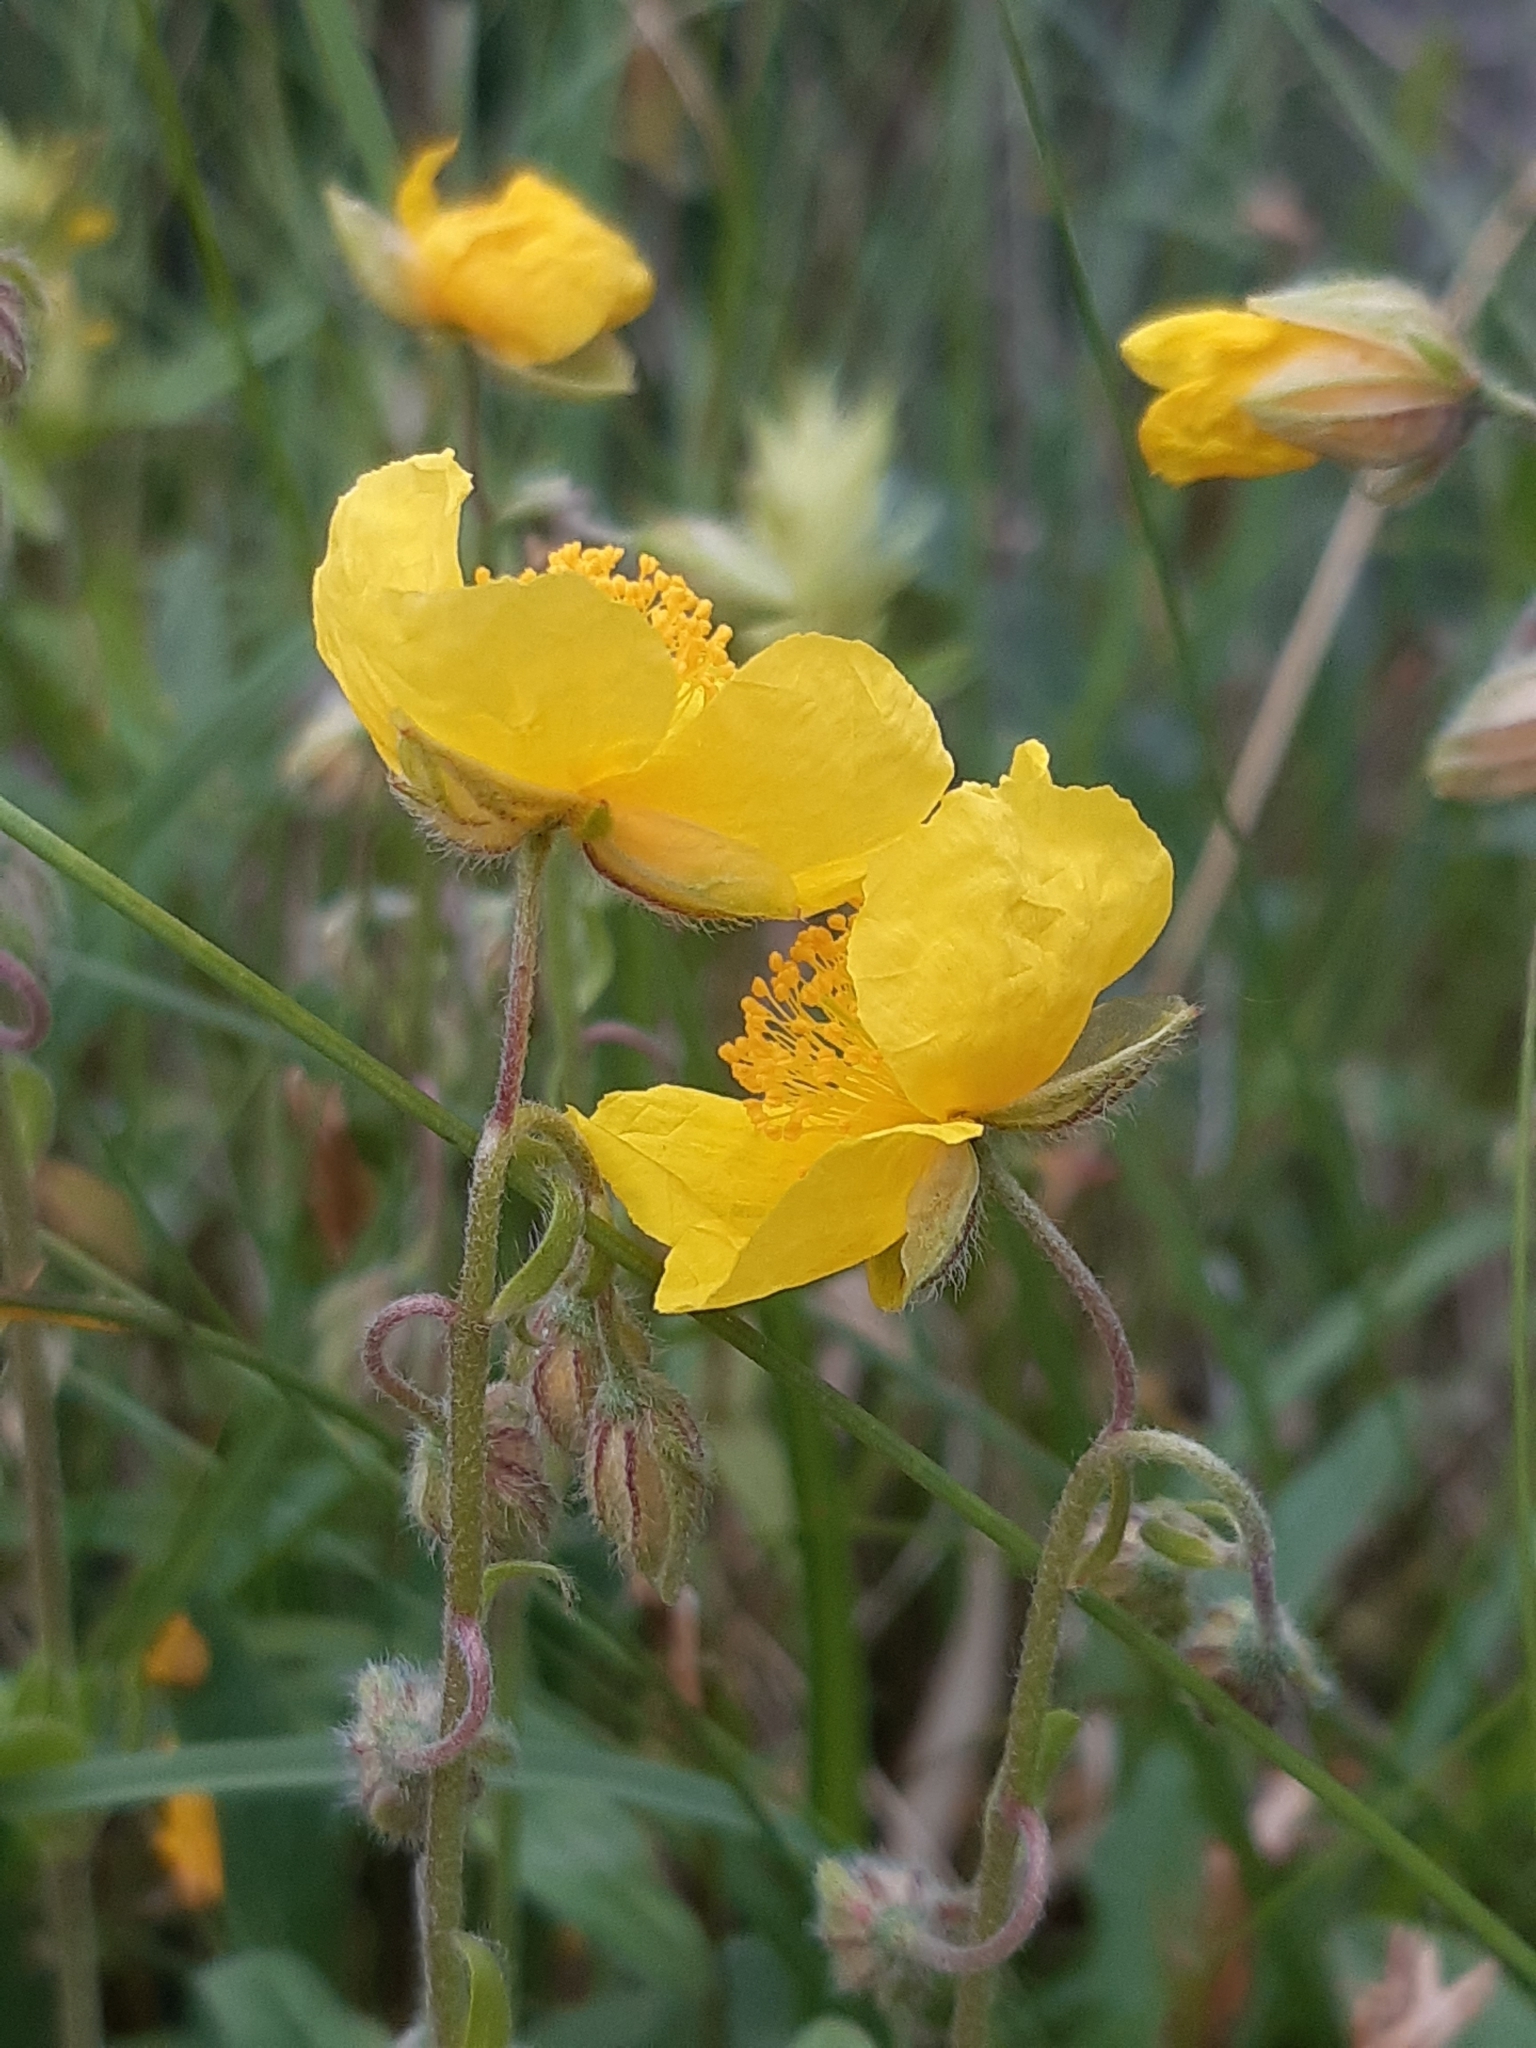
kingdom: Plantae
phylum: Tracheophyta
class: Magnoliopsida
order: Malvales
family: Cistaceae
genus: Helianthemum
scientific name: Helianthemum nummularium
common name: Common rock-rose
